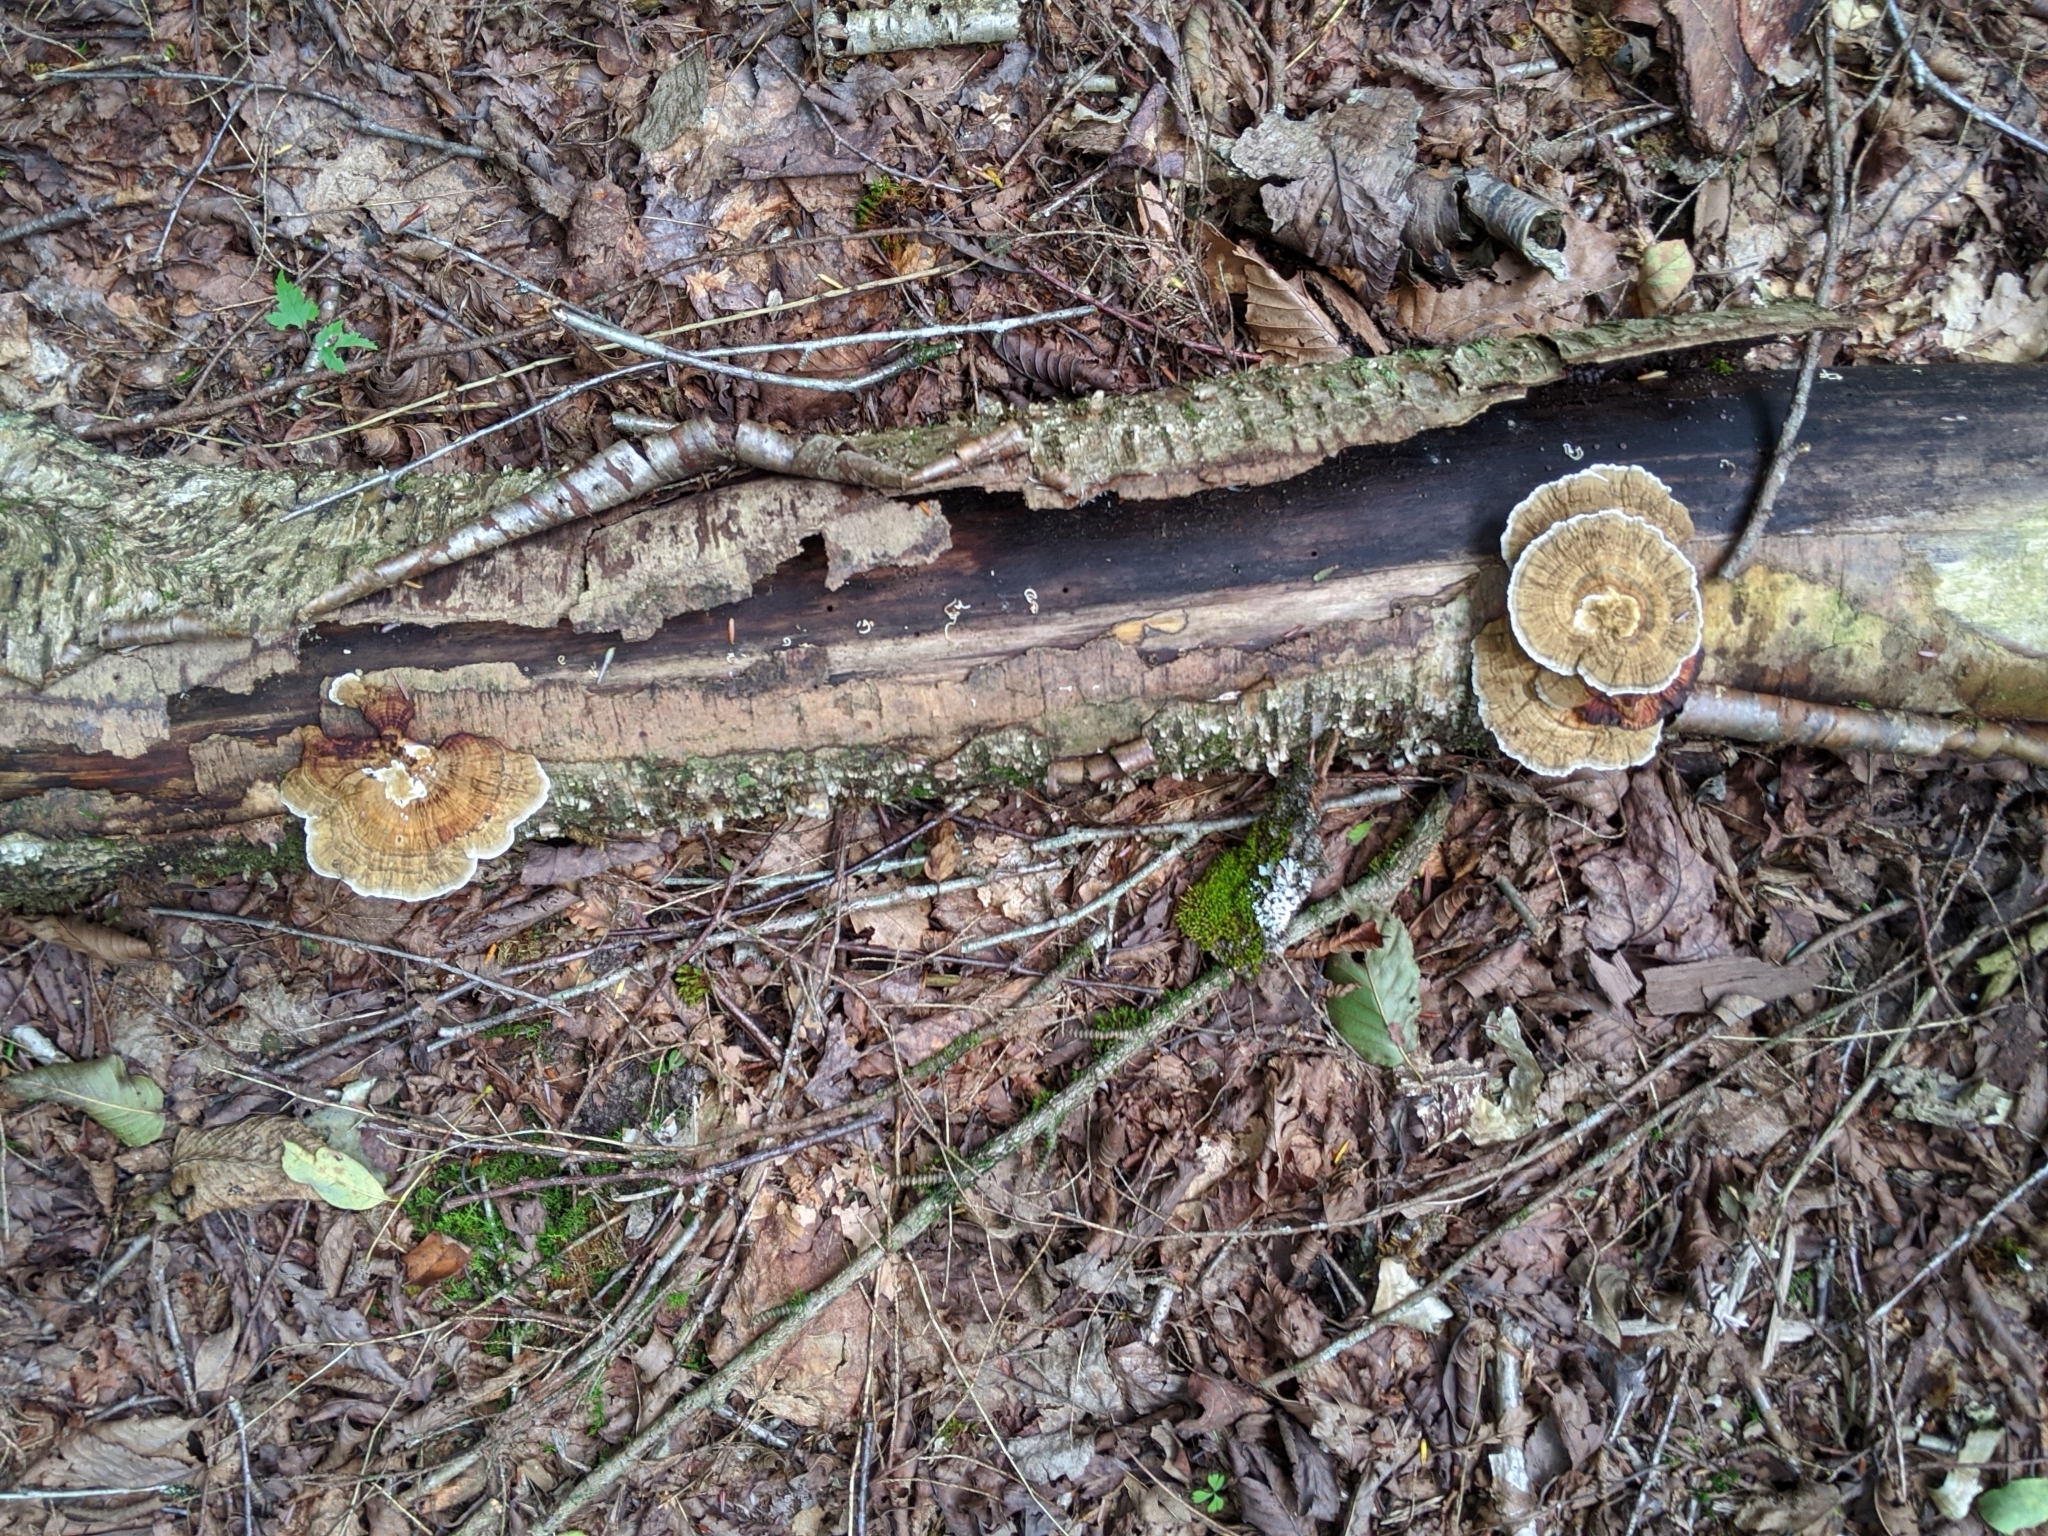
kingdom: Fungi
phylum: Basidiomycota
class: Agaricomycetes
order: Polyporales
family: Polyporaceae
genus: Daedaleopsis
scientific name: Daedaleopsis confragosa
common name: Blushing bracket
